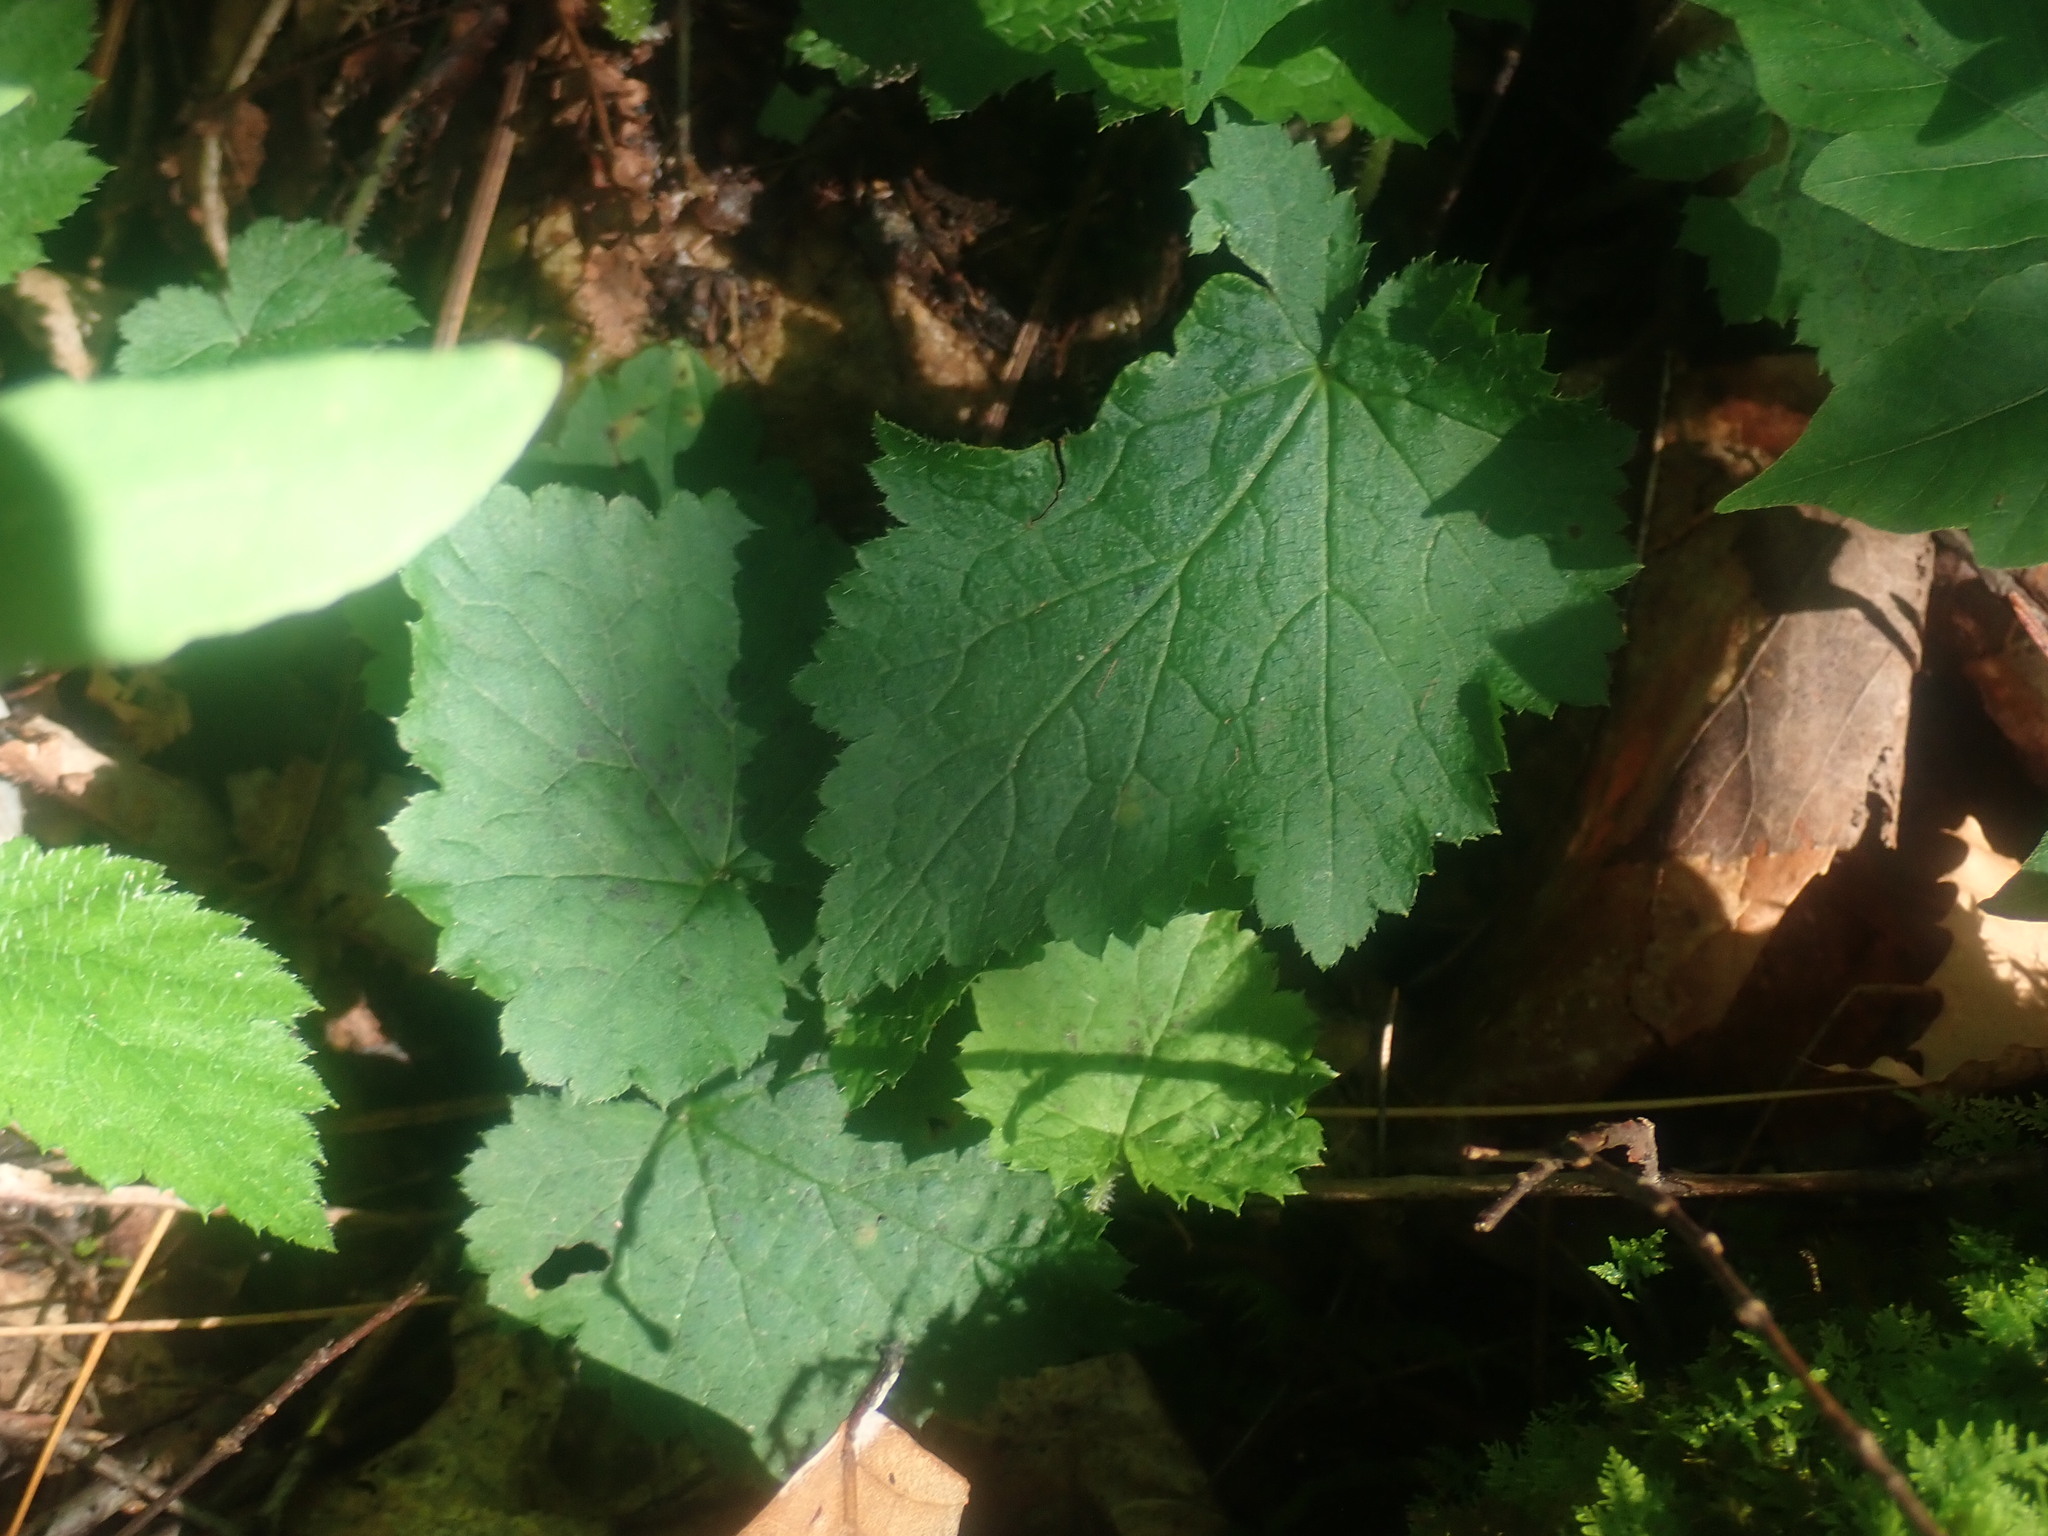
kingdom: Plantae
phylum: Tracheophyta
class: Magnoliopsida
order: Saxifragales
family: Saxifragaceae
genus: Tiarella
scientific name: Tiarella stolonifera
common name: Stoloniferous foamflower
